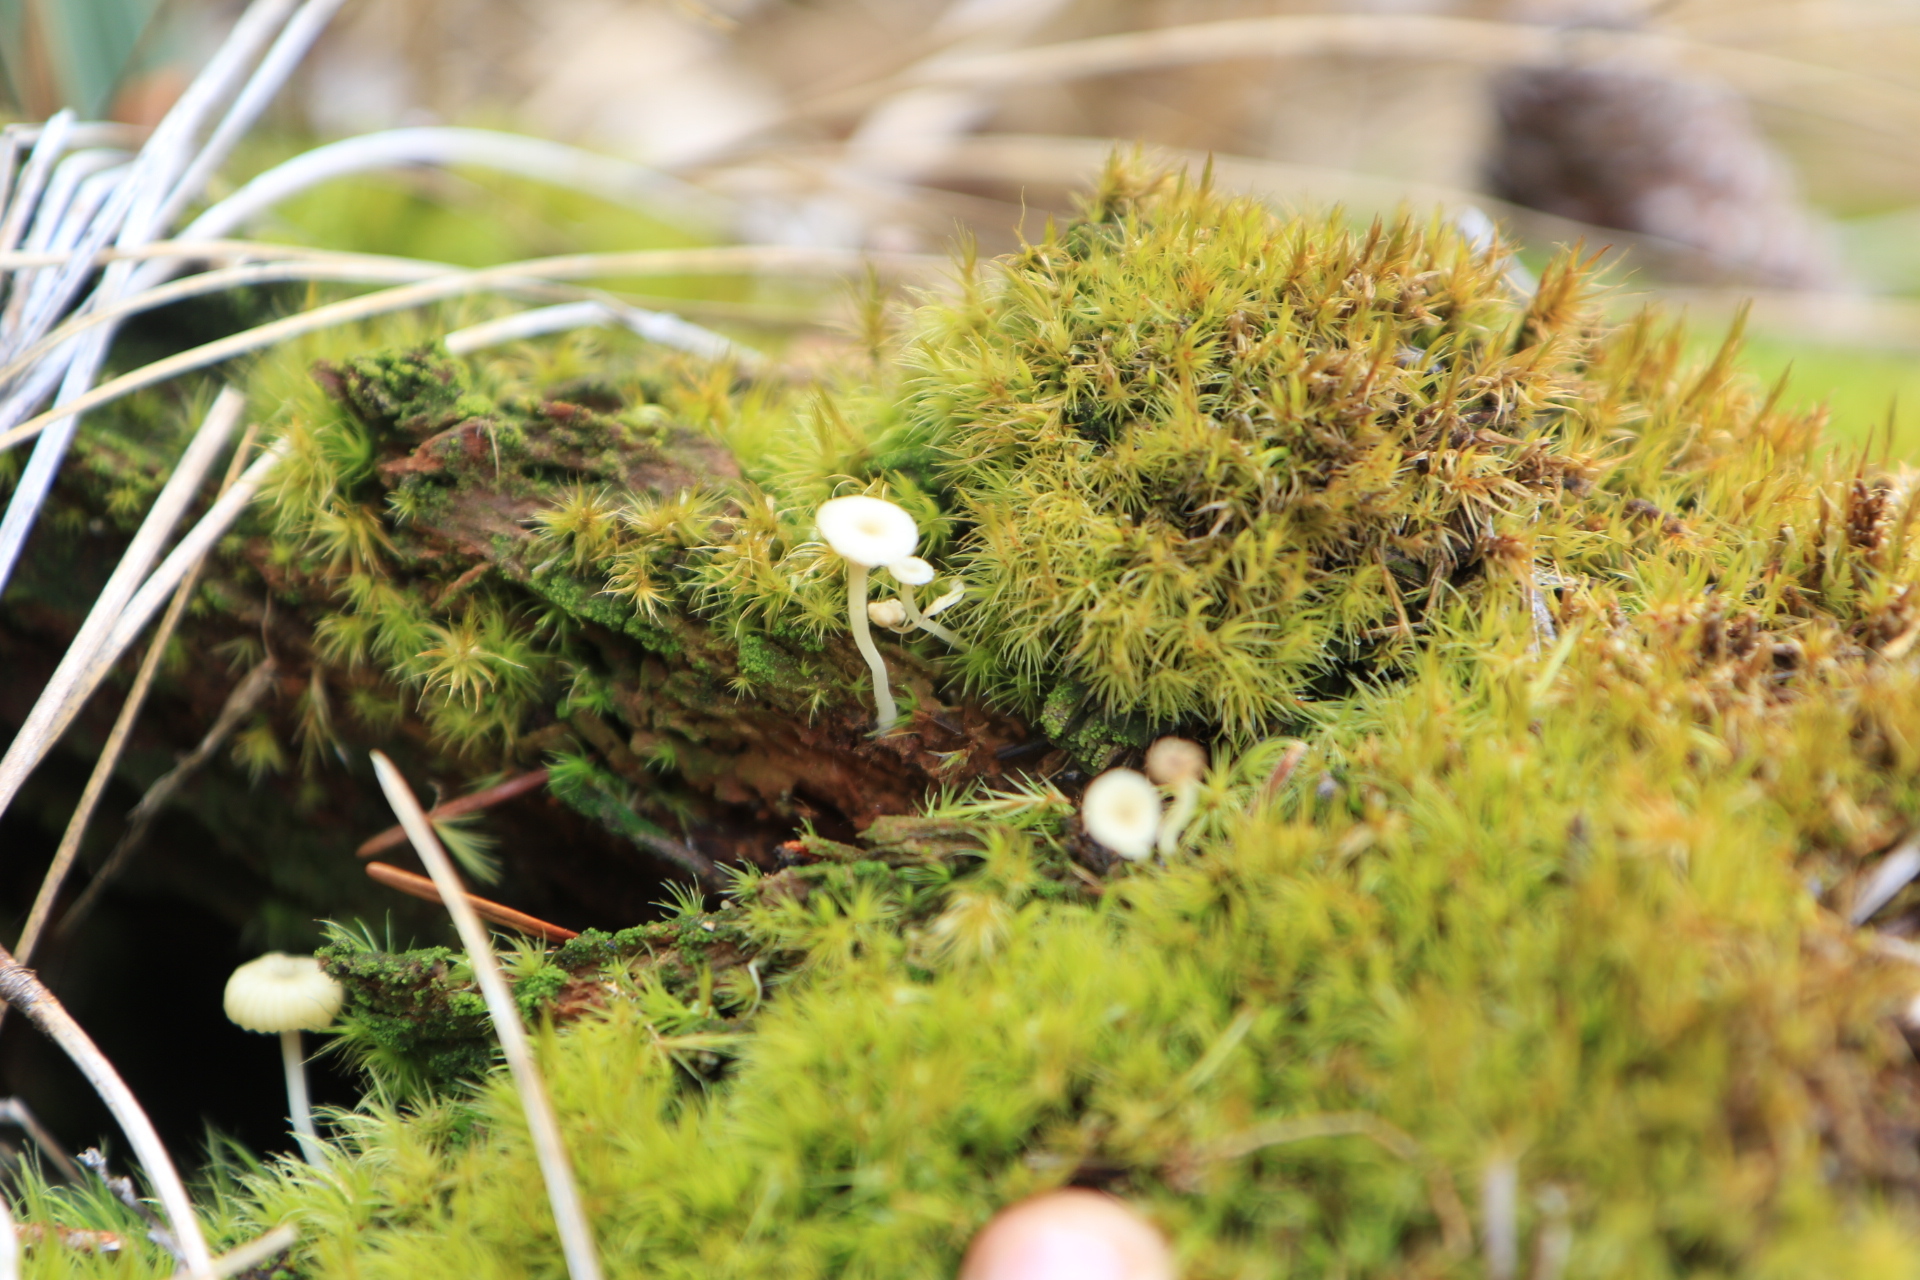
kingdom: Fungi
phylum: Basidiomycota
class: Agaricomycetes
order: Agaricales
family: Hygrophoraceae
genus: Lichenomphalia
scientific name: Lichenomphalia
